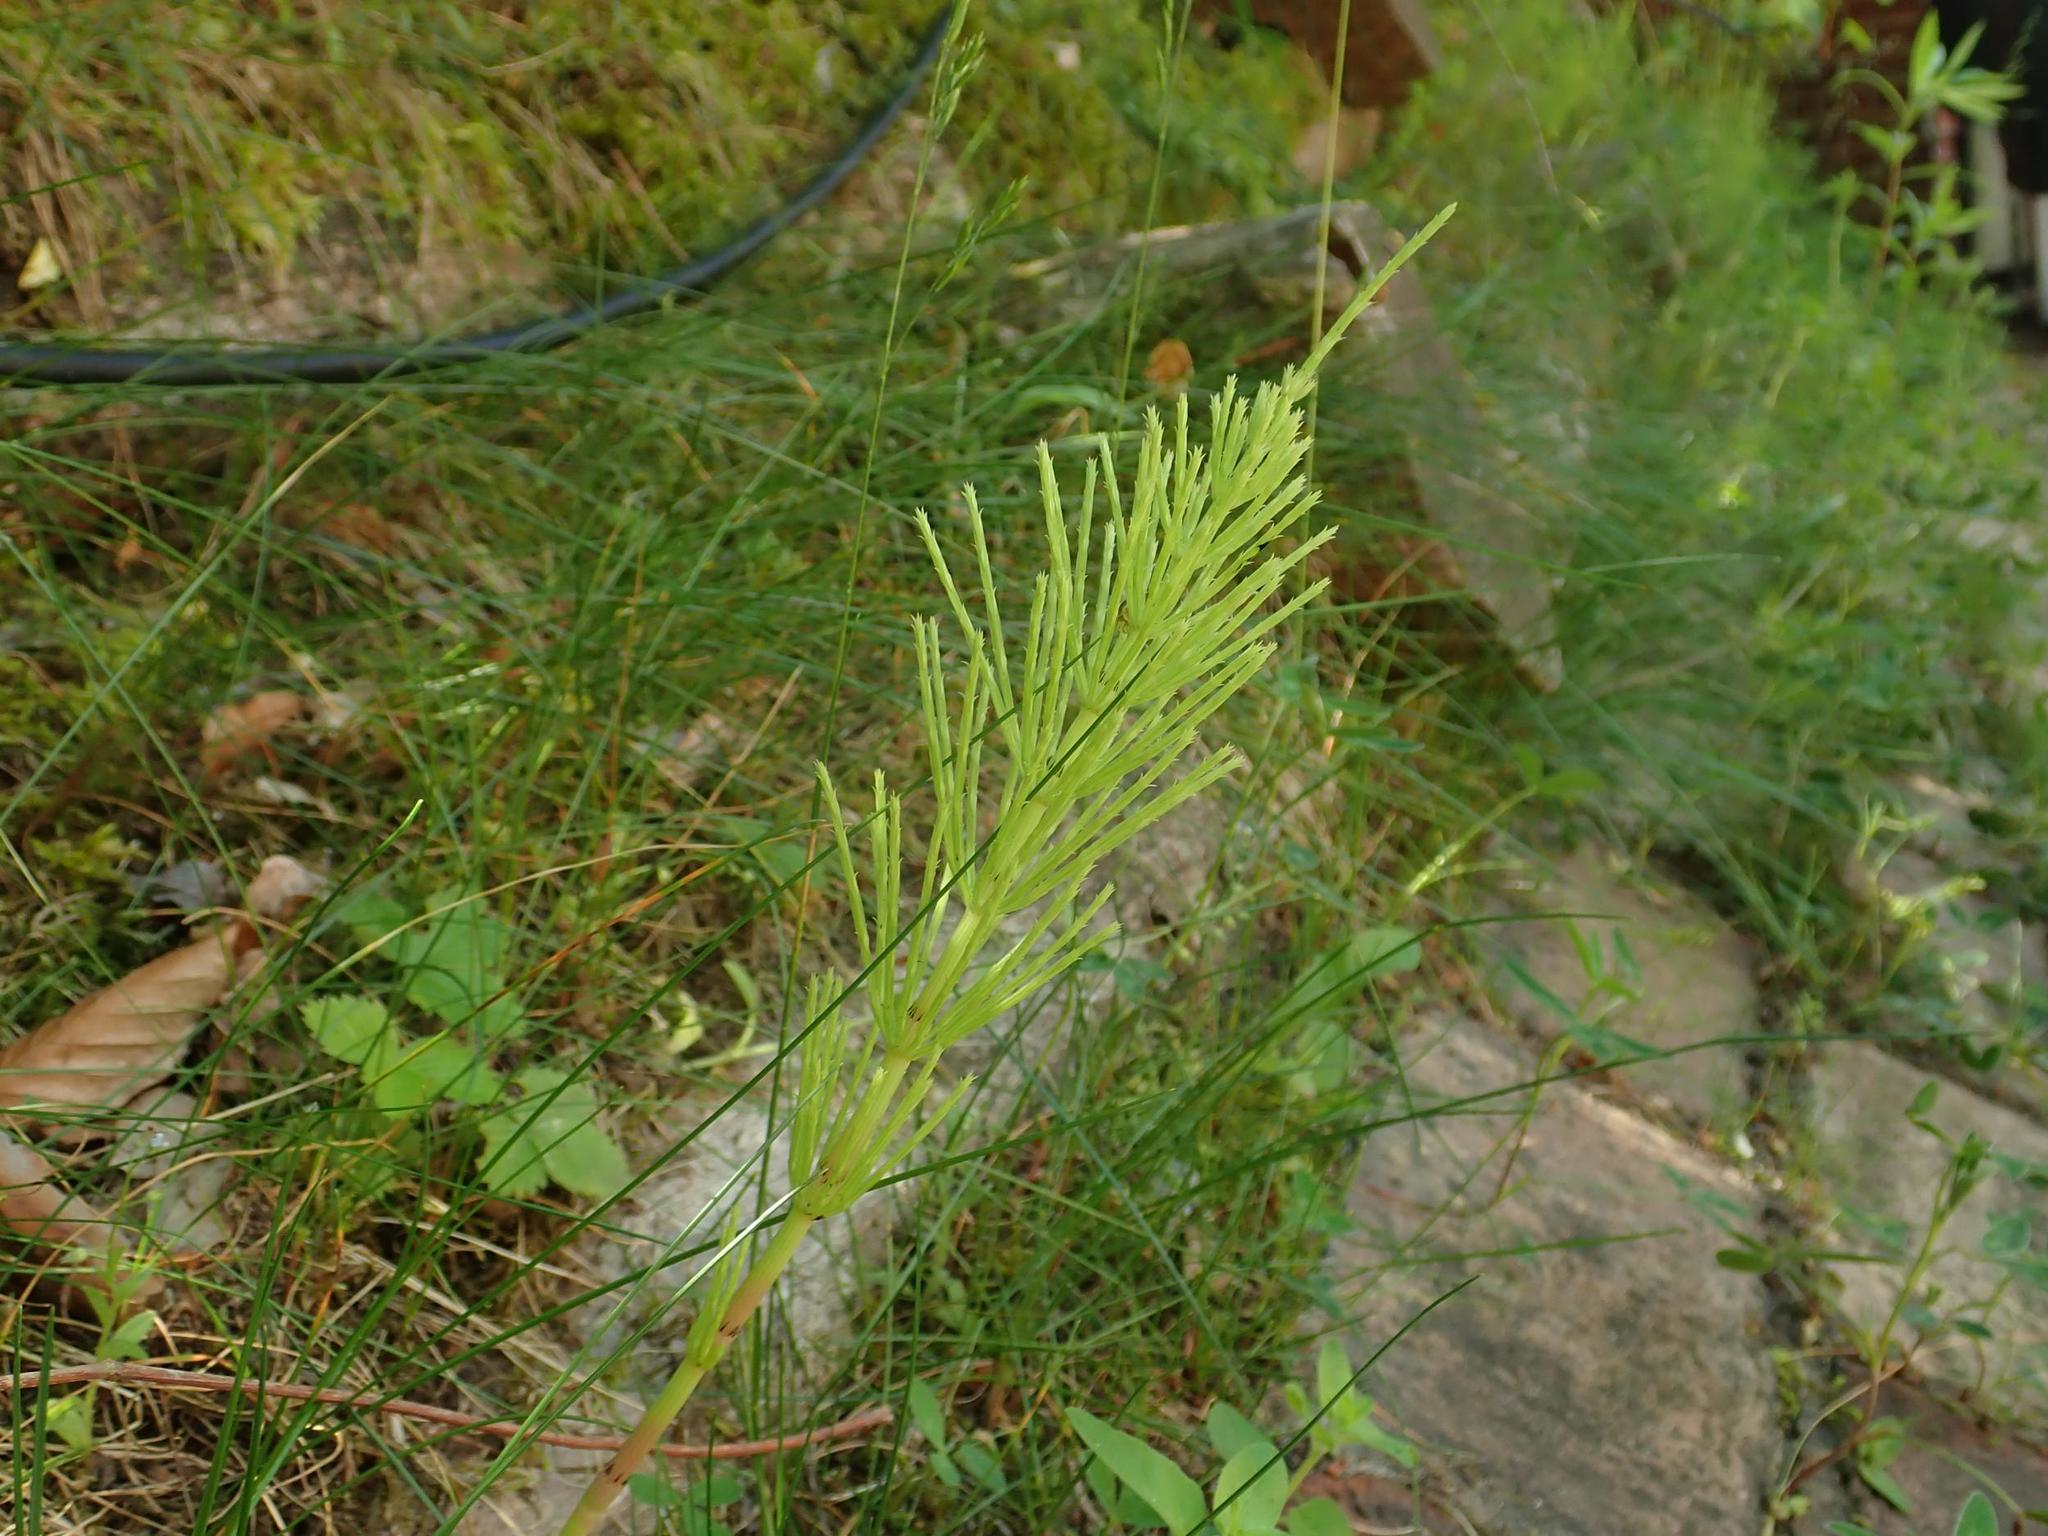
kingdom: Plantae
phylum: Tracheophyta
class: Polypodiopsida
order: Equisetales
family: Equisetaceae
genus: Equisetum
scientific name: Equisetum arvense
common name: Field horsetail
